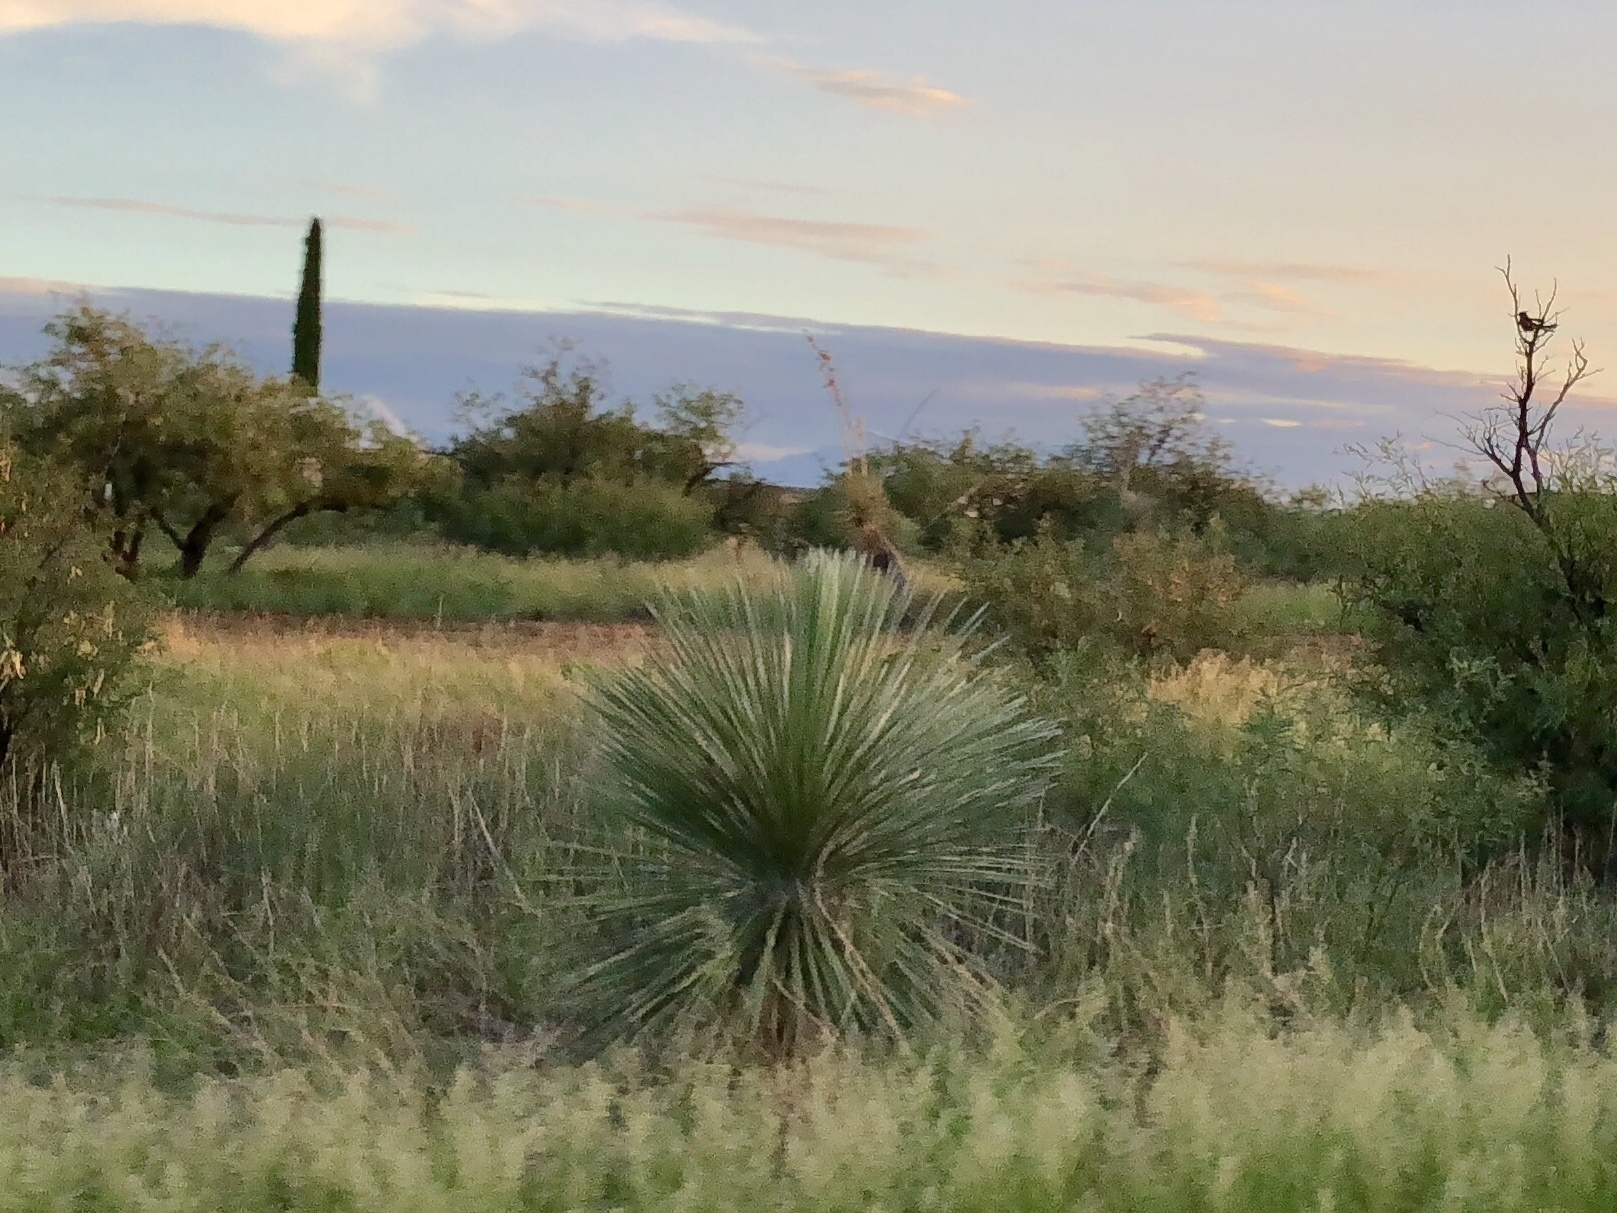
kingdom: Plantae
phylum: Tracheophyta
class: Liliopsida
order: Asparagales
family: Asparagaceae
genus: Yucca
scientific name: Yucca elata
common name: Palmella
